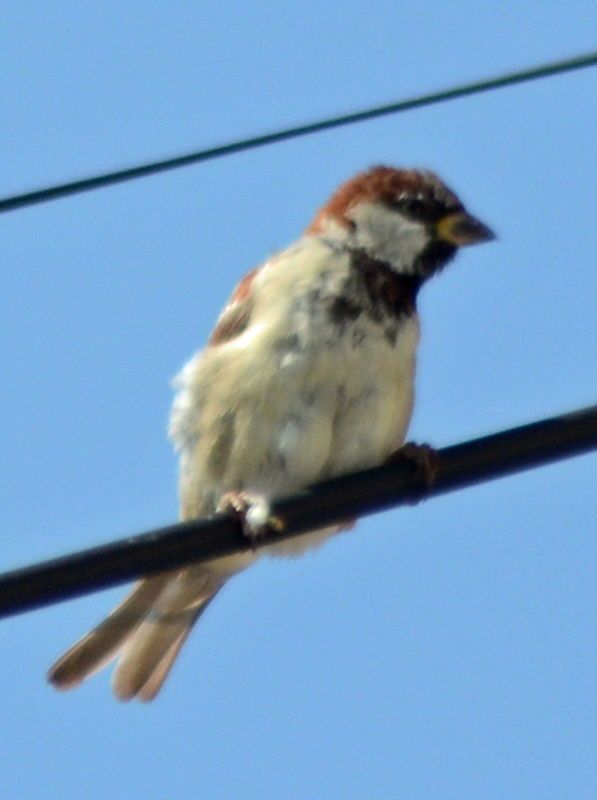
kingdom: Animalia
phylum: Chordata
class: Aves
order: Passeriformes
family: Passeridae
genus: Passer
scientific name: Passer domesticus
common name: House sparrow
